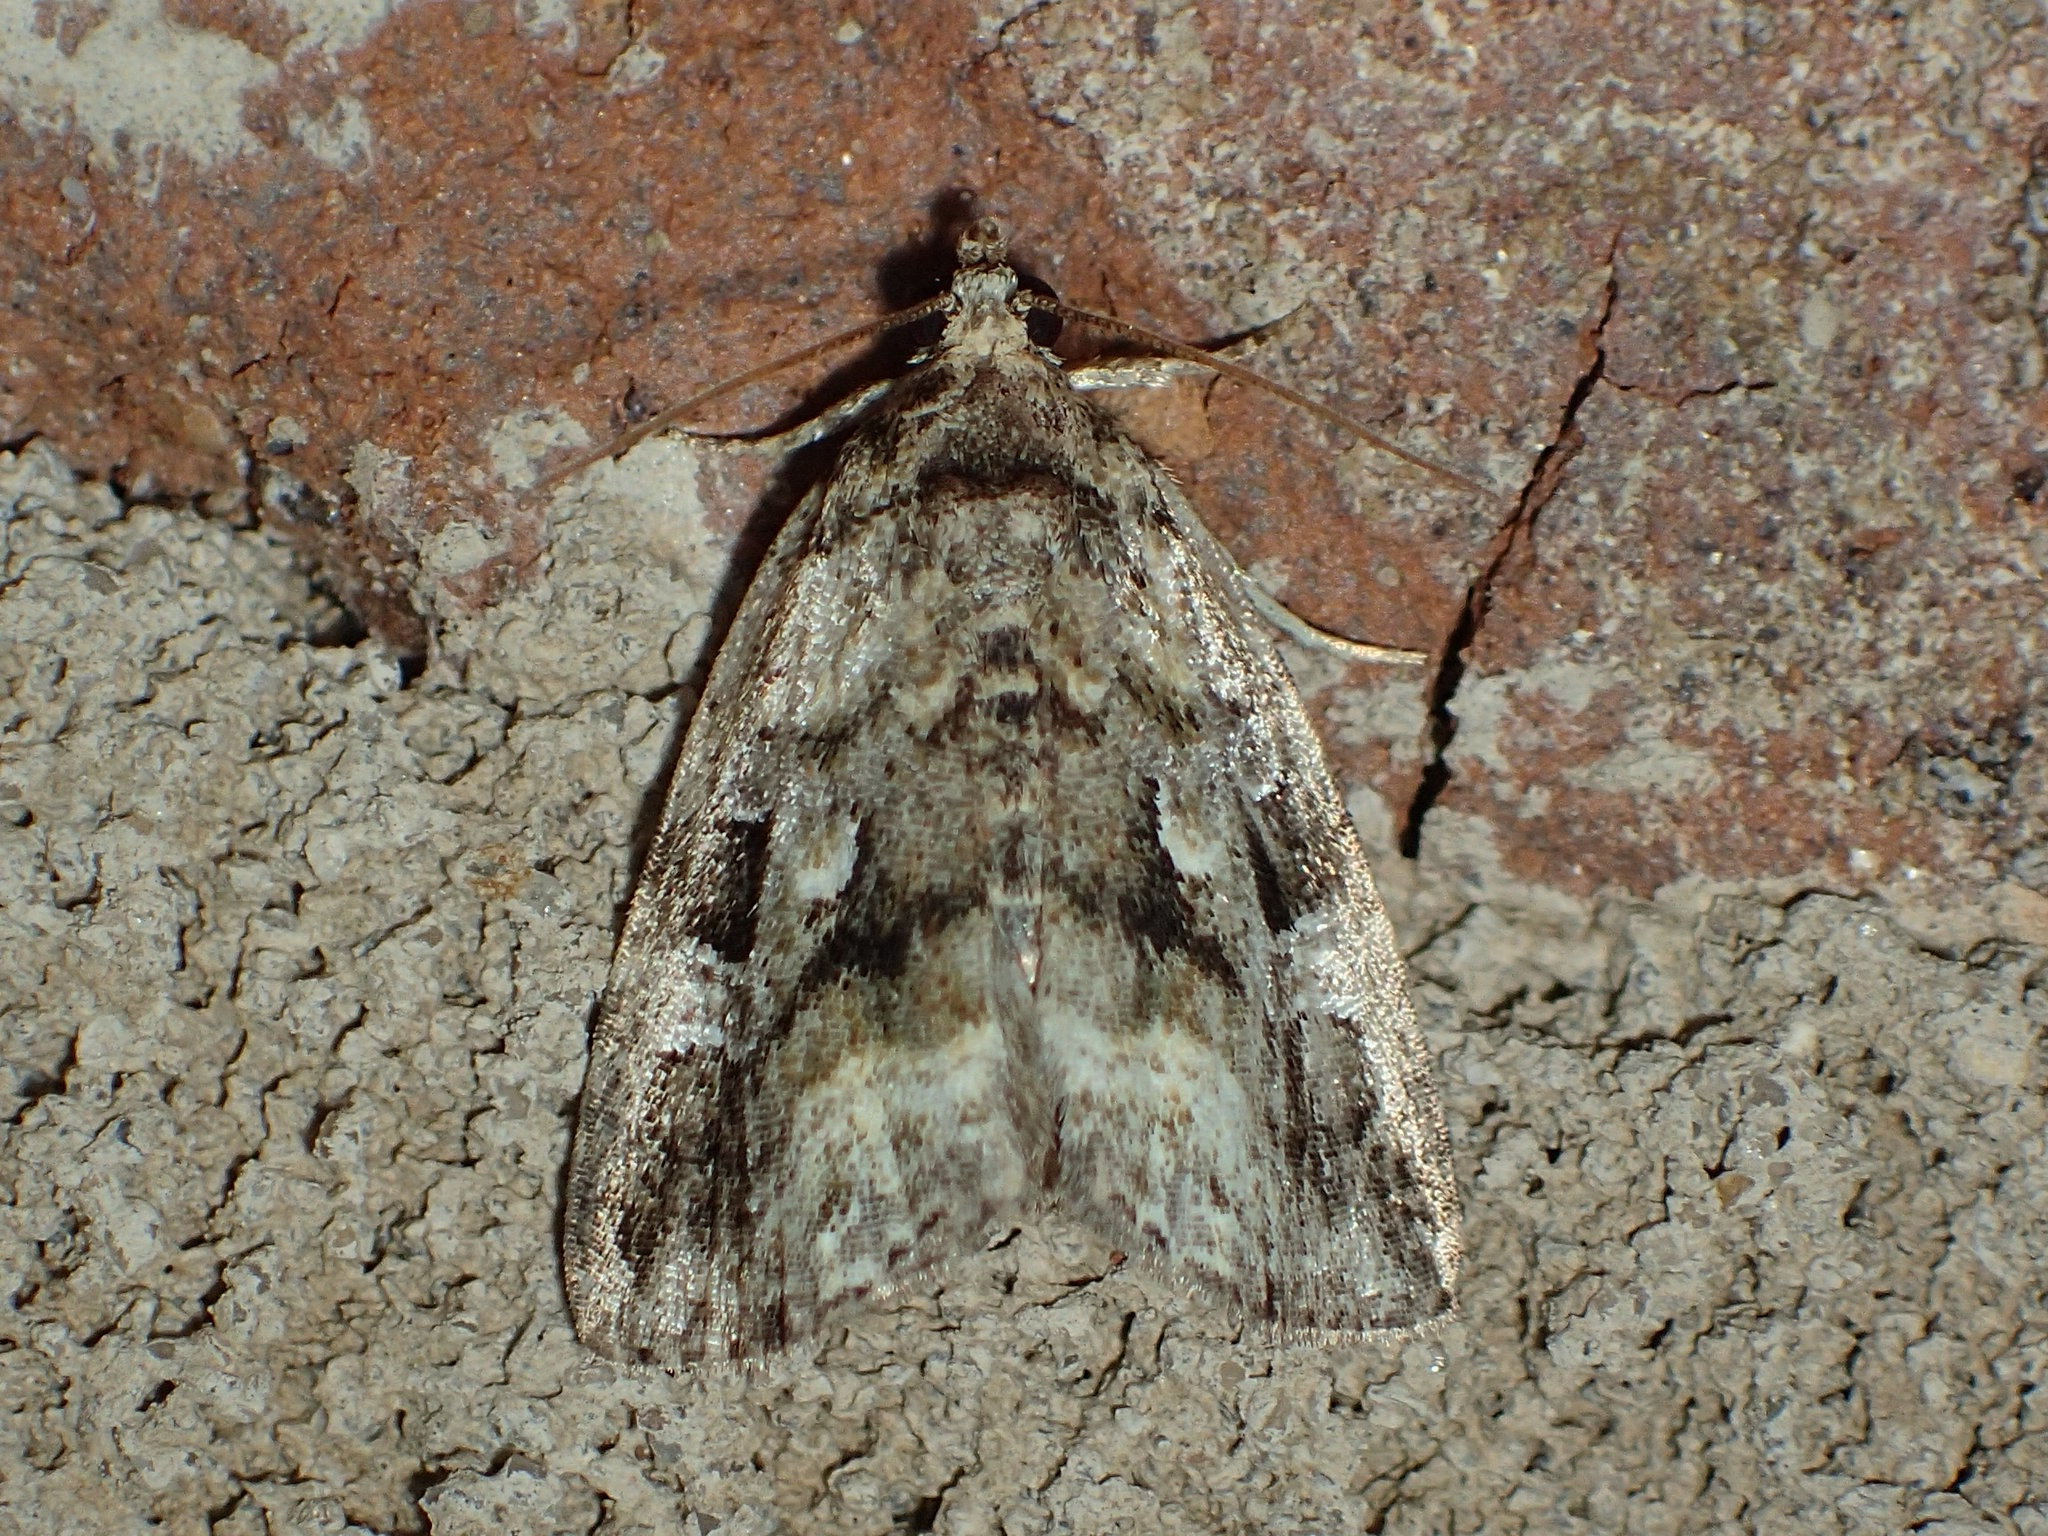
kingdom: Animalia
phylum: Arthropoda
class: Insecta
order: Lepidoptera
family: Noctuidae
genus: Protodeltote
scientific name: Protodeltote muscosula
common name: Large mossy glyph
